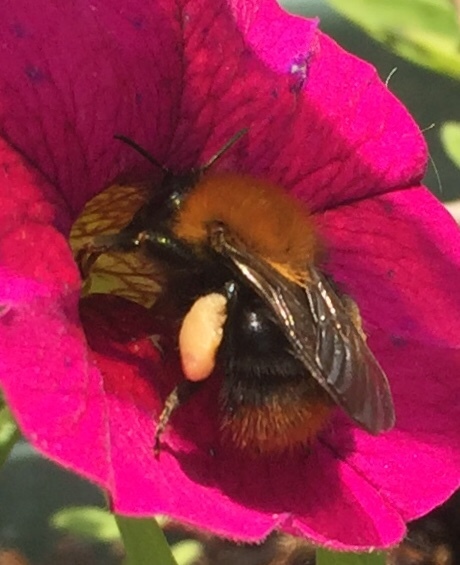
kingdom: Animalia
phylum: Arthropoda
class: Insecta
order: Hymenoptera
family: Apidae
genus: Bombus
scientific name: Bombus pascuorum
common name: Common carder bee
